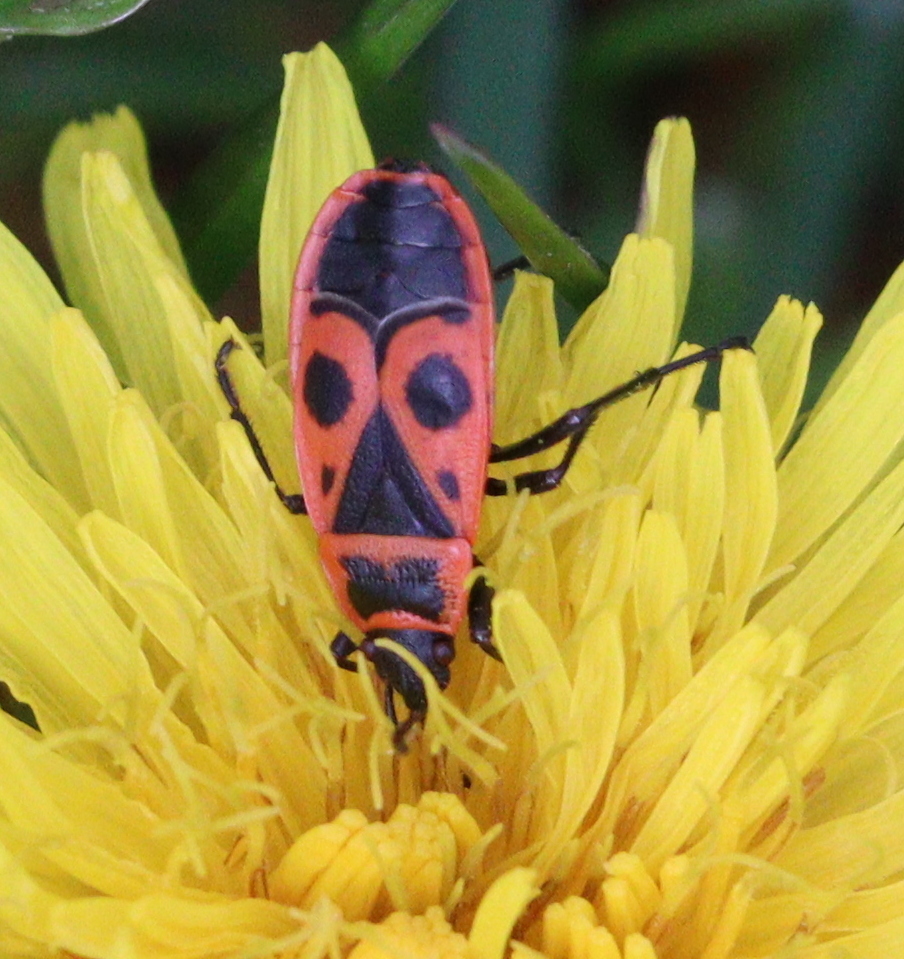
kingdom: Animalia
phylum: Arthropoda
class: Insecta
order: Hemiptera
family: Pyrrhocoridae
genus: Pyrrhocoris
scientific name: Pyrrhocoris apterus
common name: Firebug
